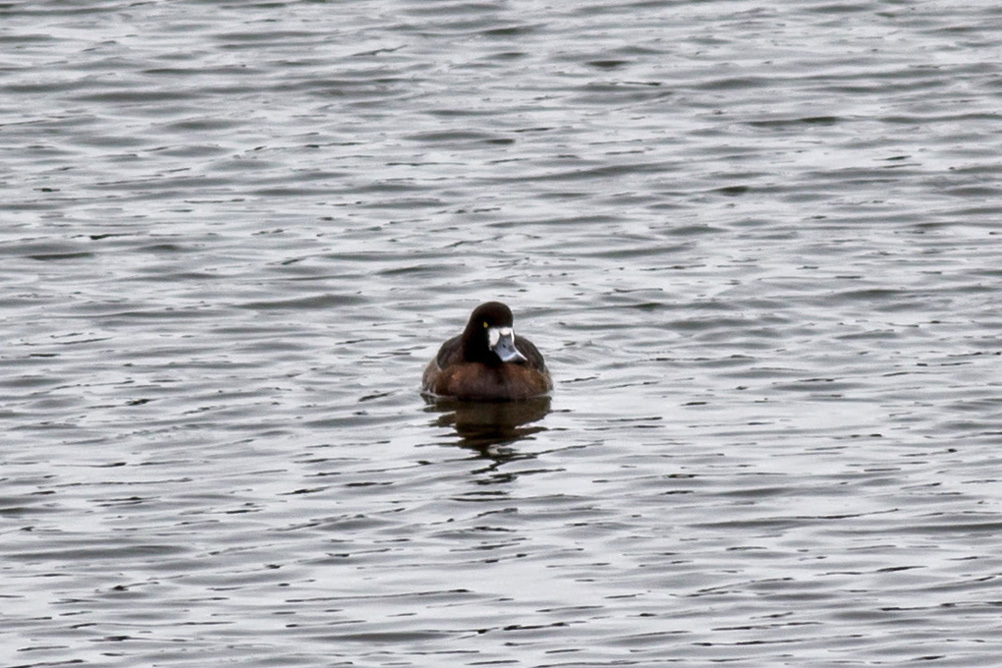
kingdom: Animalia
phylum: Chordata
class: Aves
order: Anseriformes
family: Anatidae
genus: Aythya
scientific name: Aythya marila
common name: Greater scaup
